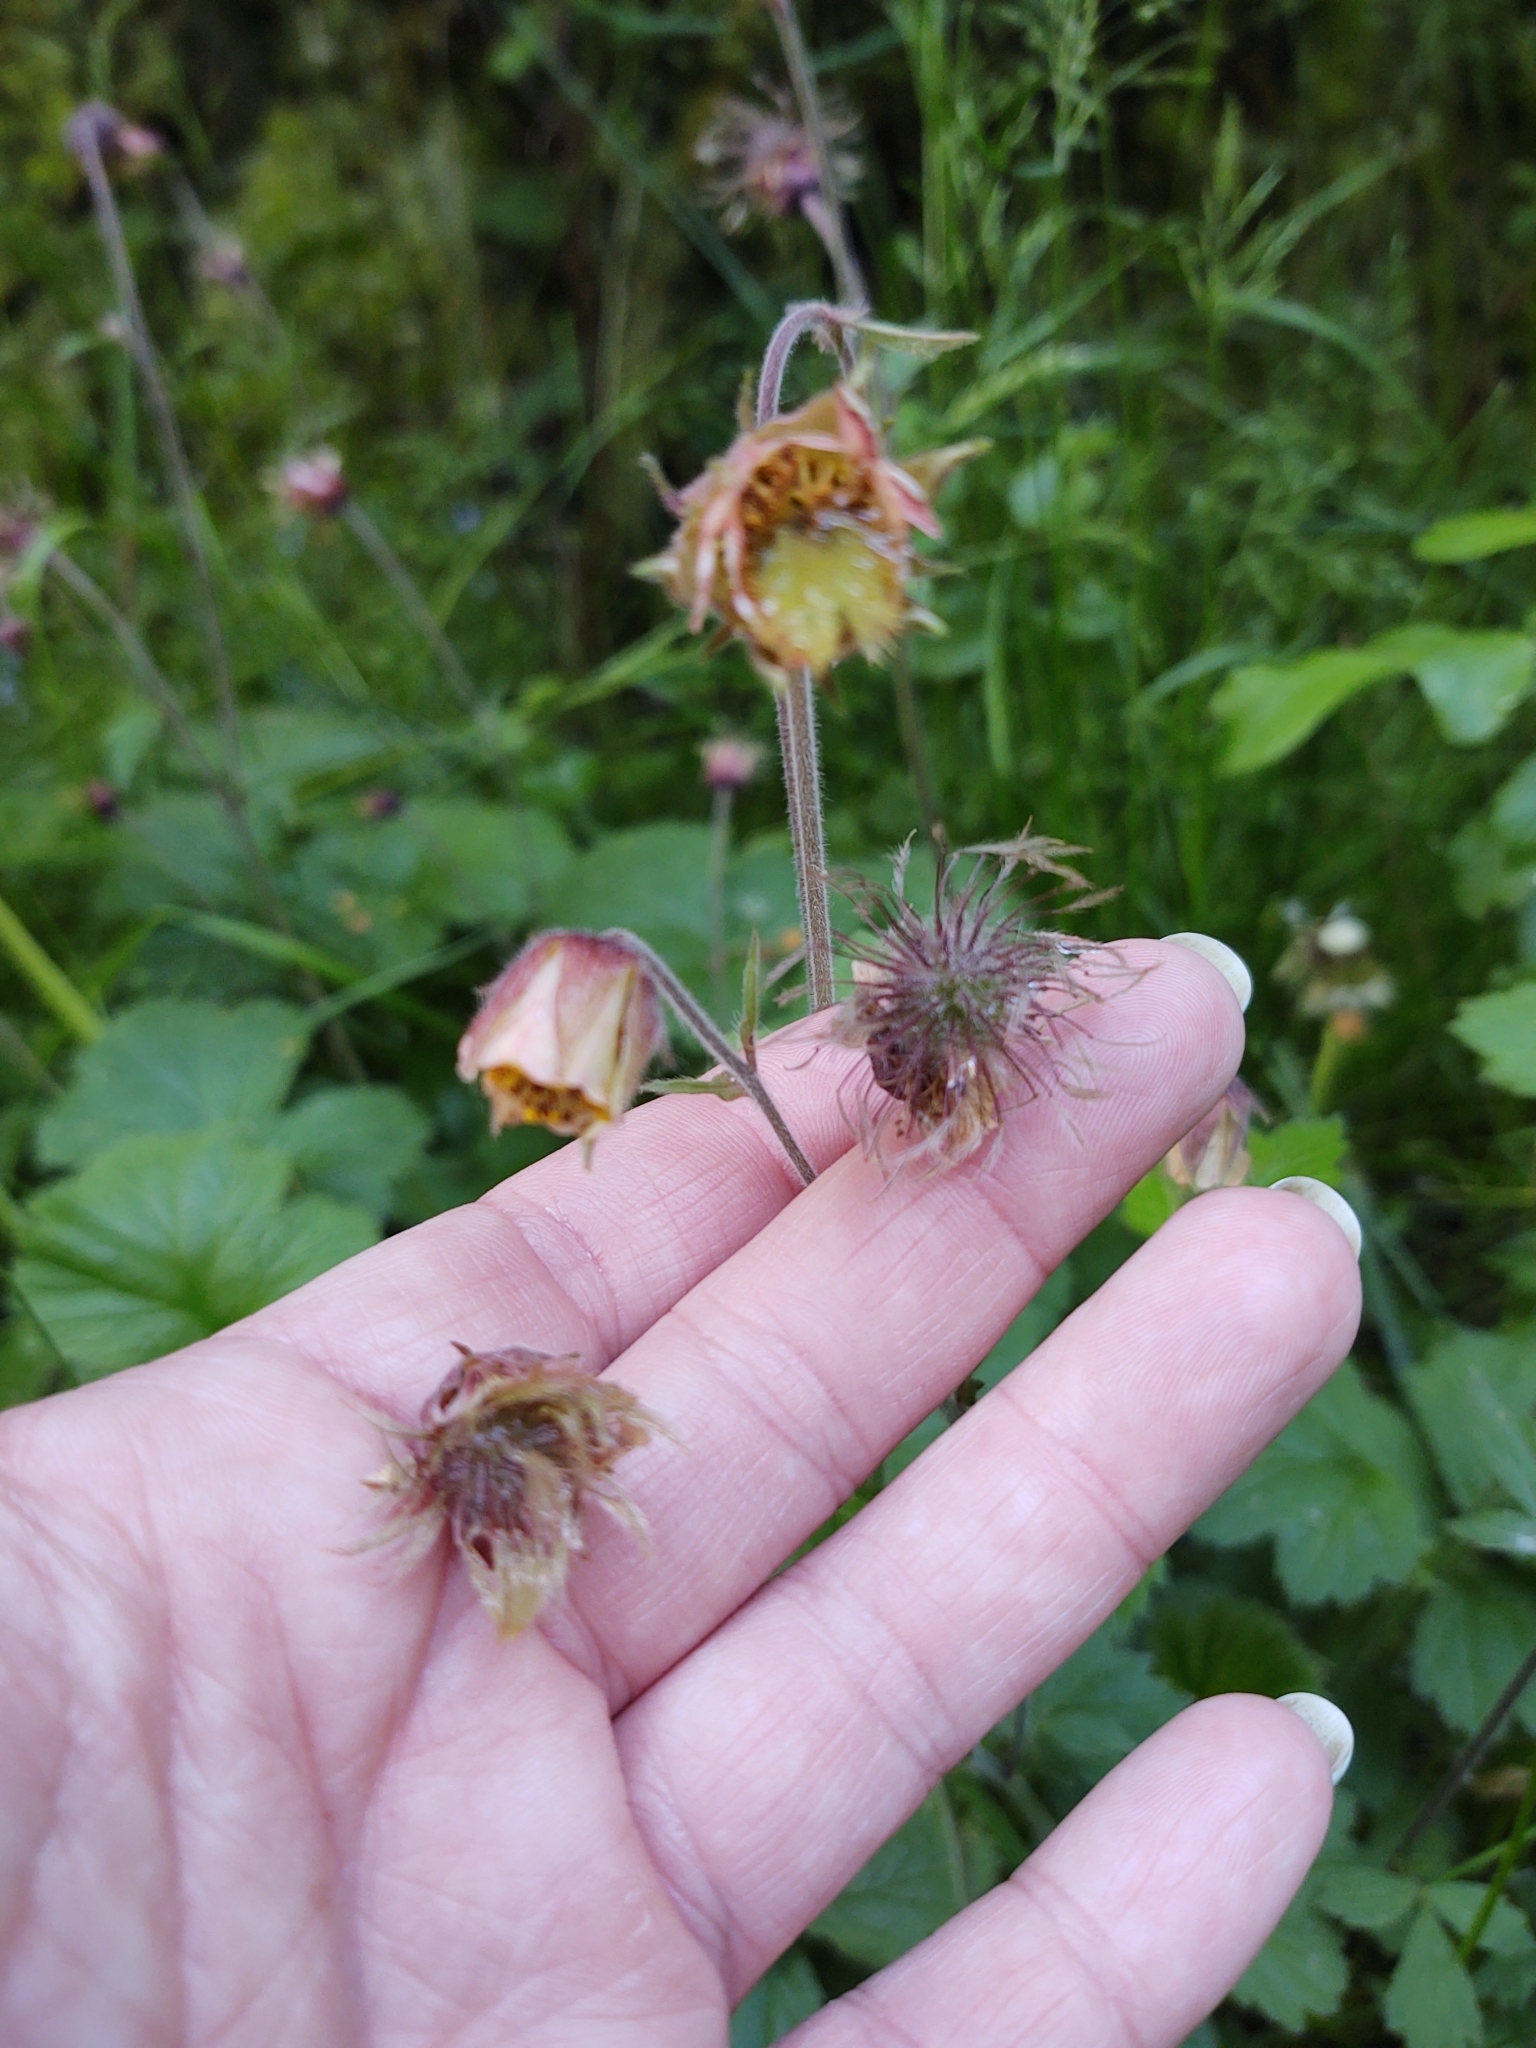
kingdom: Plantae
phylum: Tracheophyta
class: Magnoliopsida
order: Rosales
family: Rosaceae
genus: Geum
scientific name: Geum rivale
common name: Water avens
